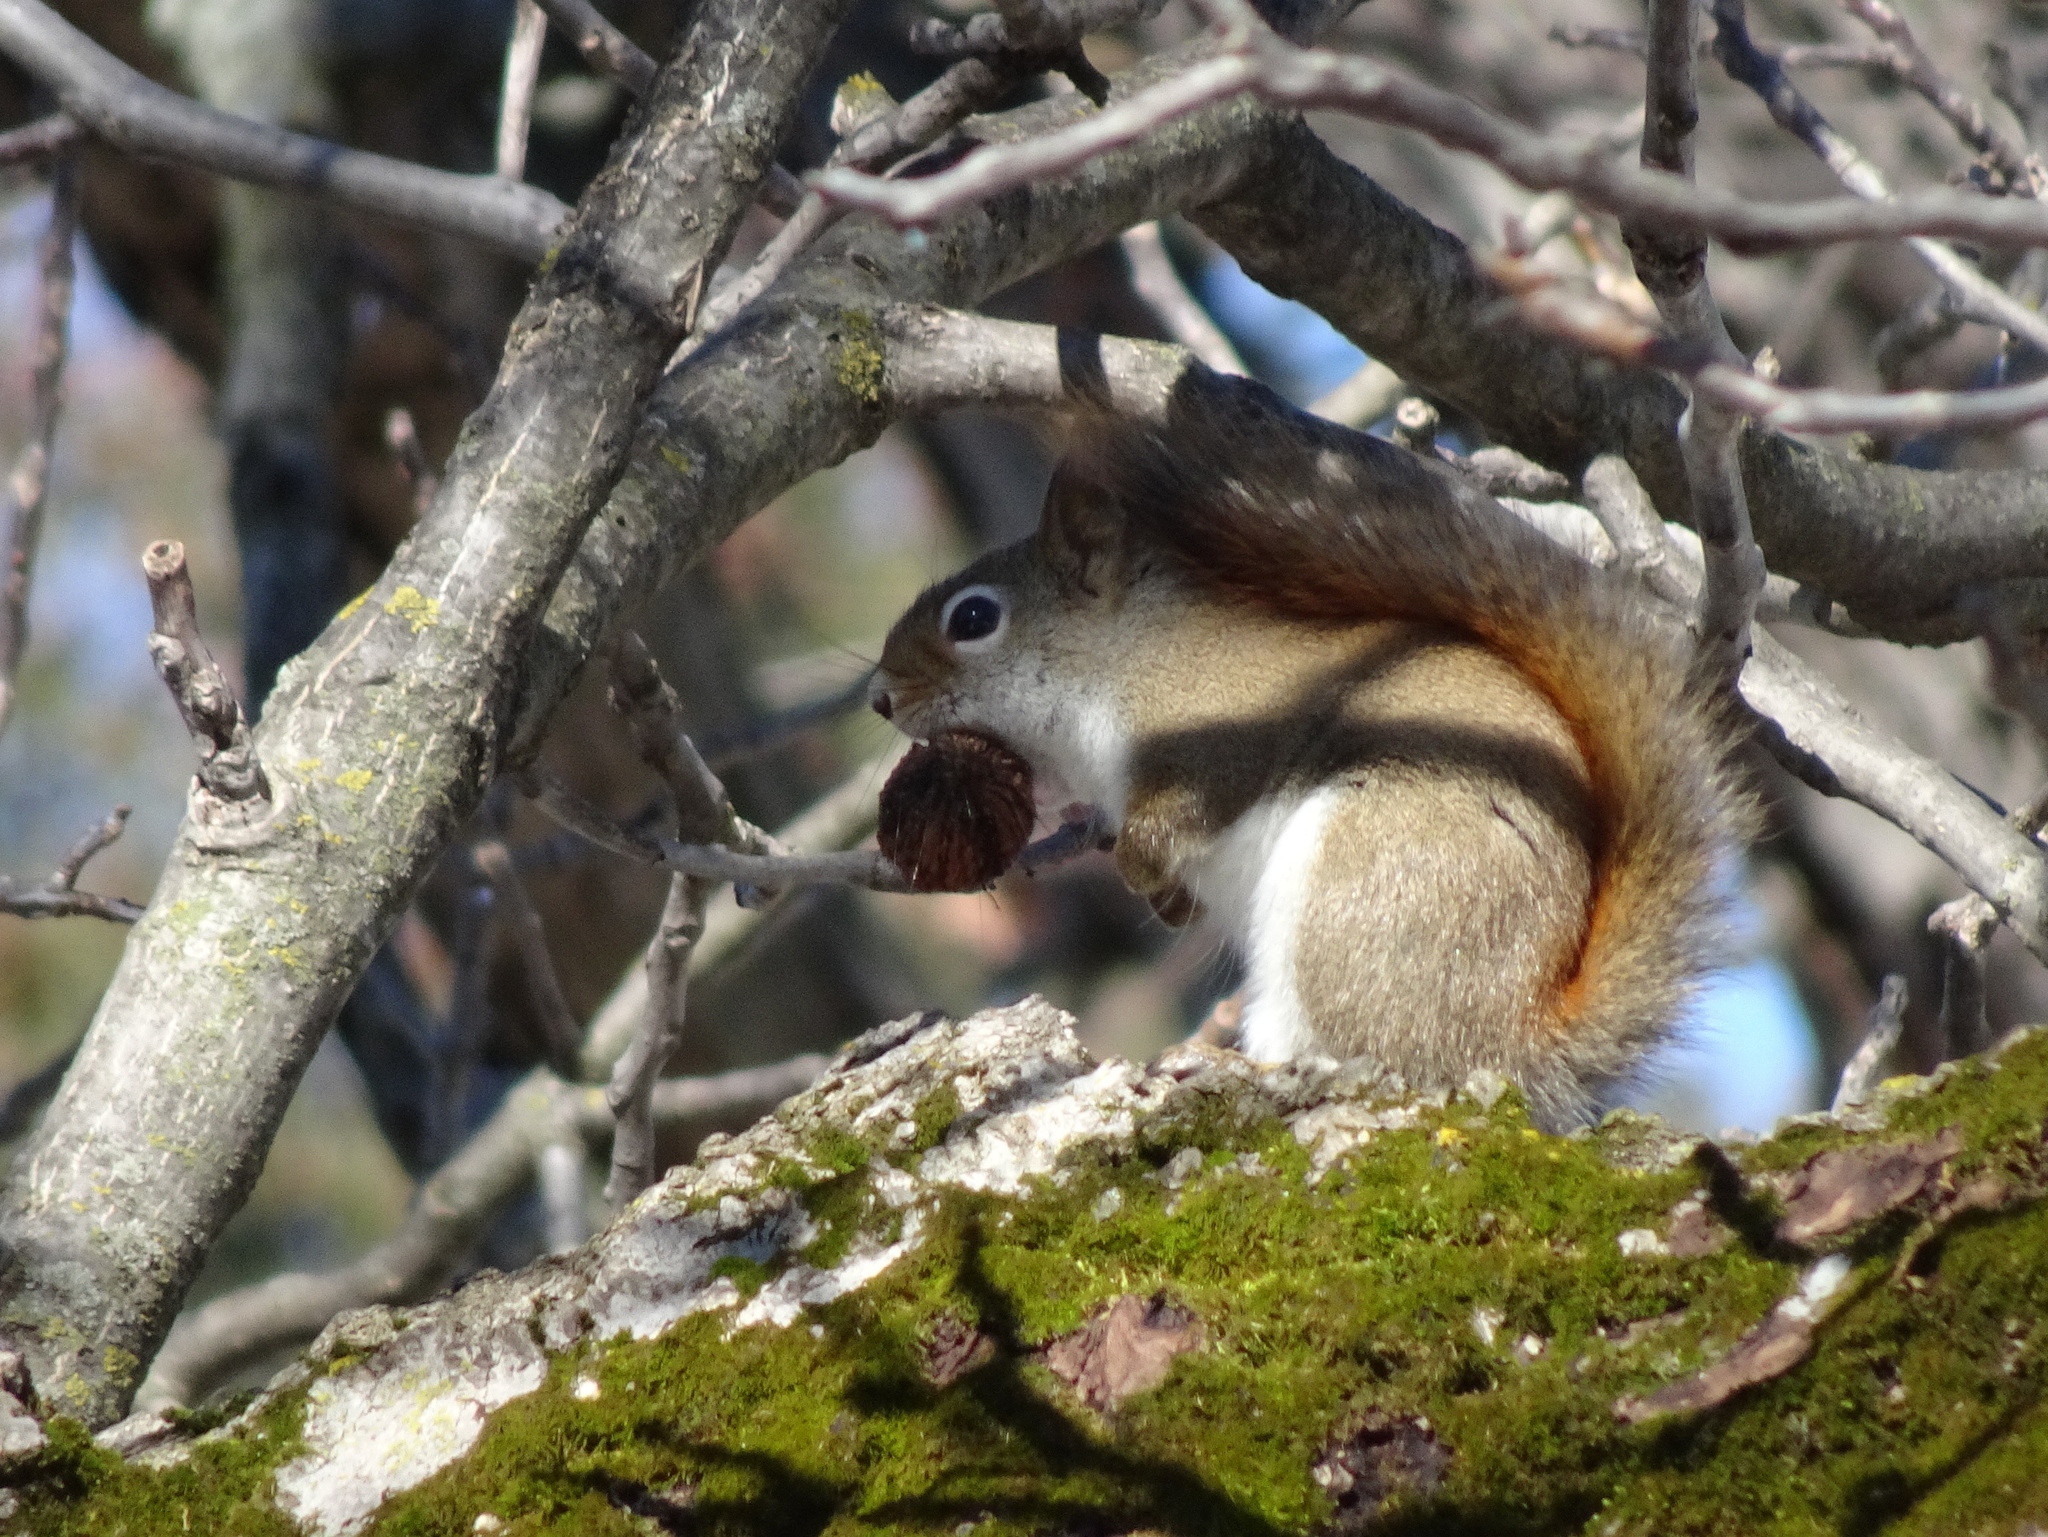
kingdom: Animalia
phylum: Chordata
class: Mammalia
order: Rodentia
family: Sciuridae
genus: Tamiasciurus
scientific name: Tamiasciurus hudsonicus
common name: Red squirrel
